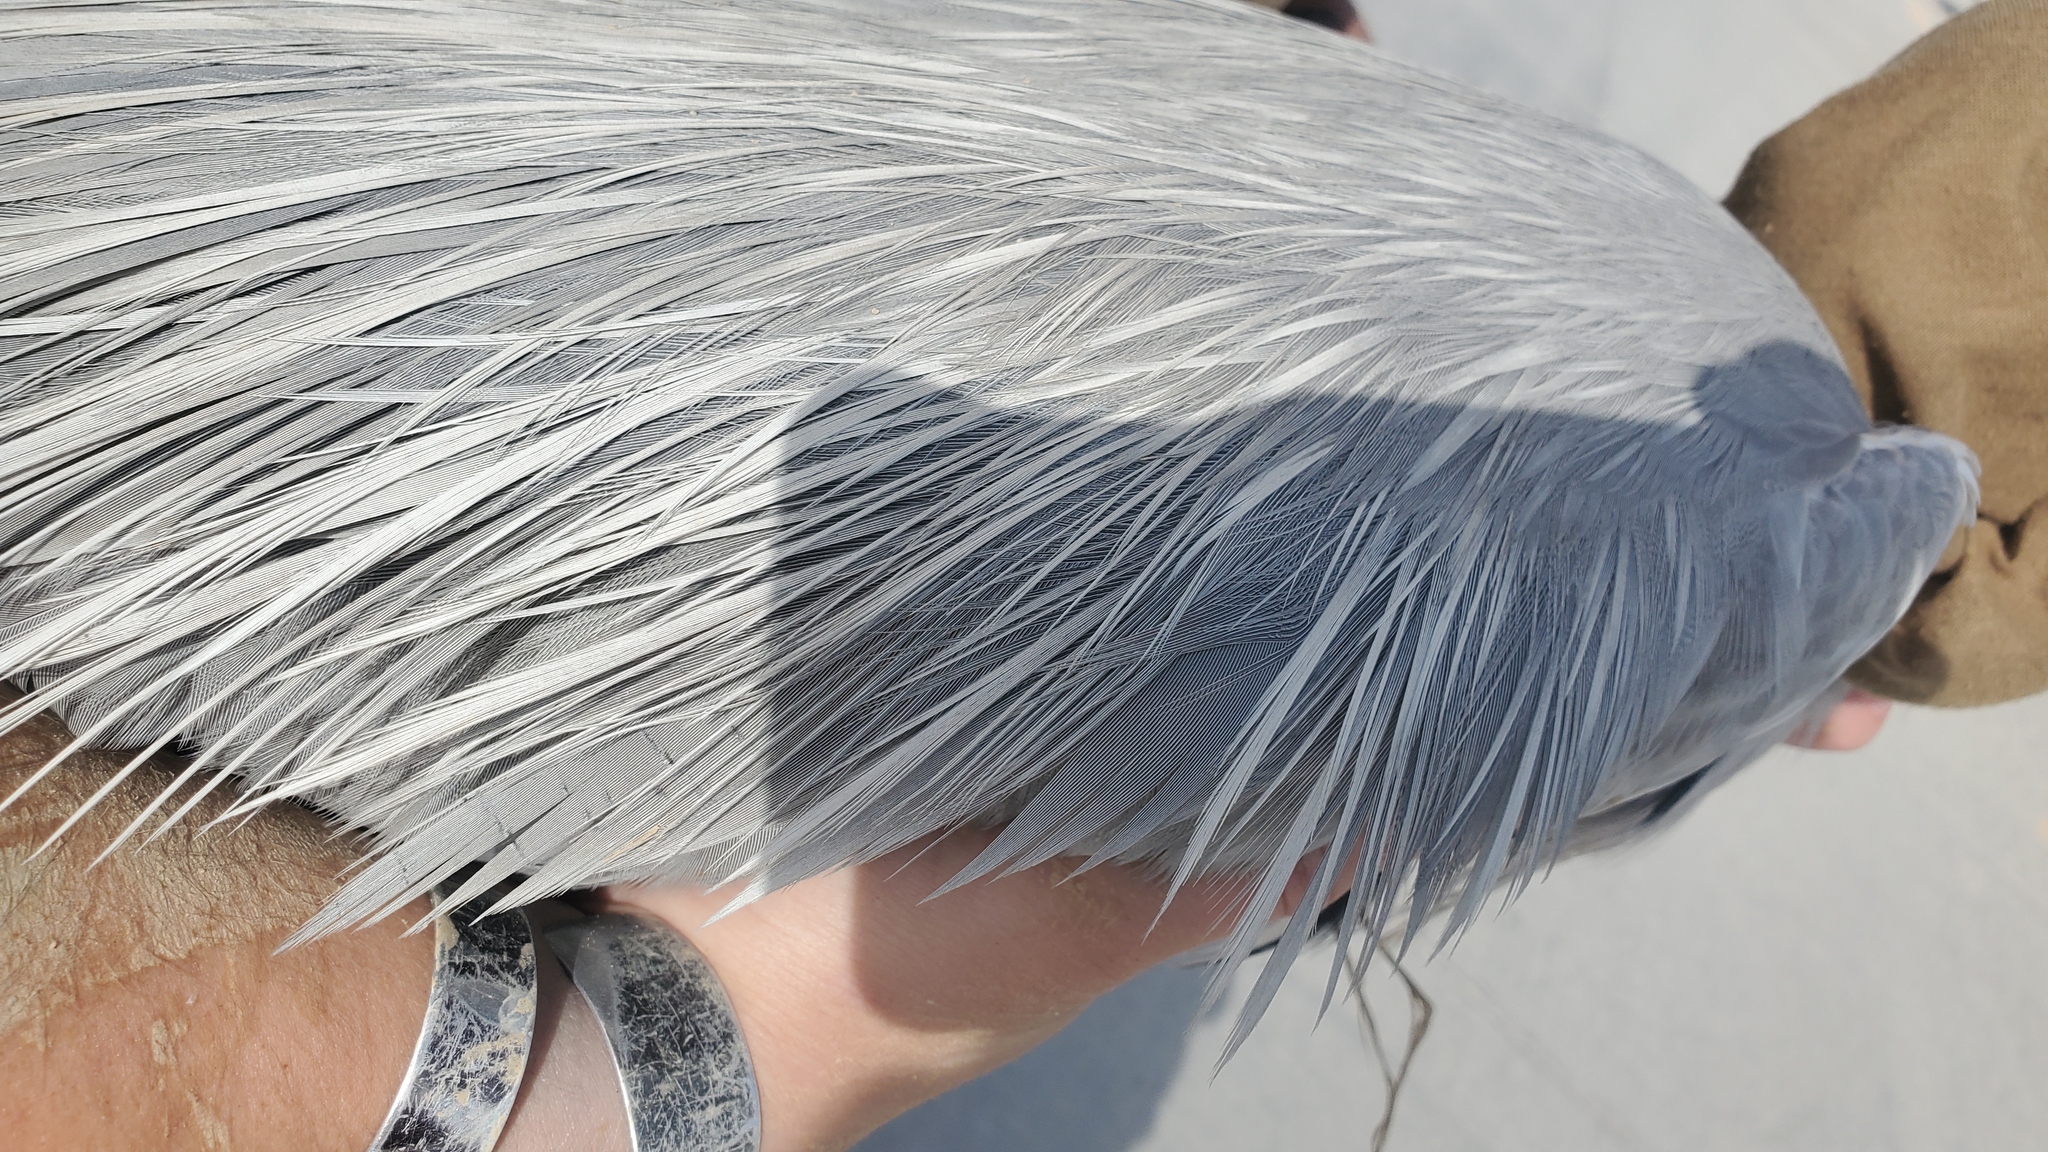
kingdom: Animalia
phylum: Chordata
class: Aves
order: Pelecaniformes
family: Ardeidae
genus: Ardea
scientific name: Ardea cinerea
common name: Grey heron
